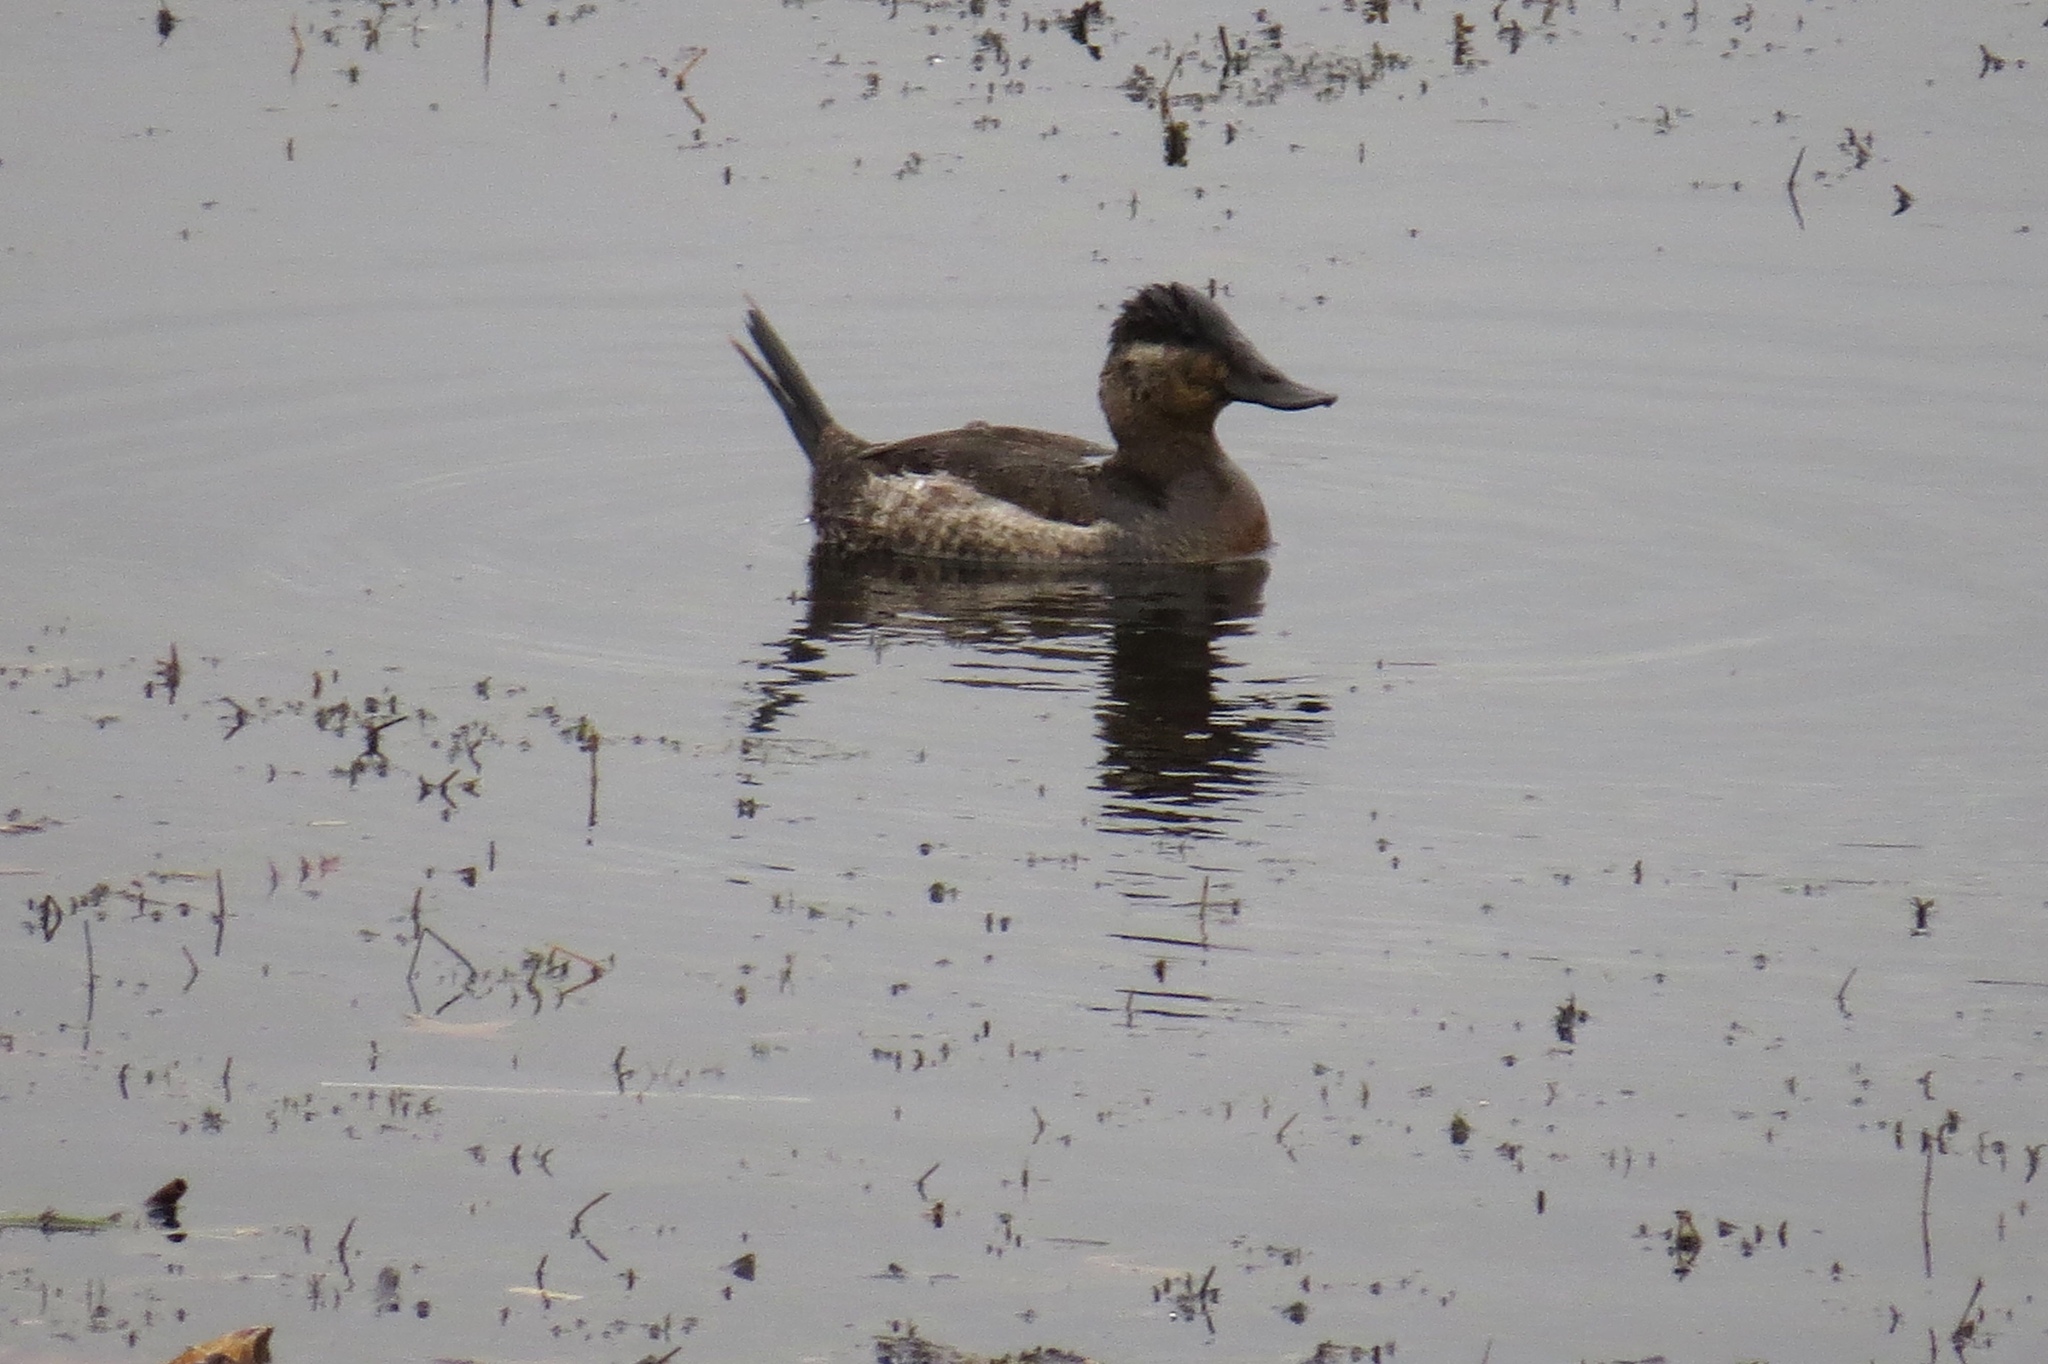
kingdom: Animalia
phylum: Chordata
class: Aves
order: Anseriformes
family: Anatidae
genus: Oxyura
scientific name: Oxyura jamaicensis
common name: Ruddy duck
